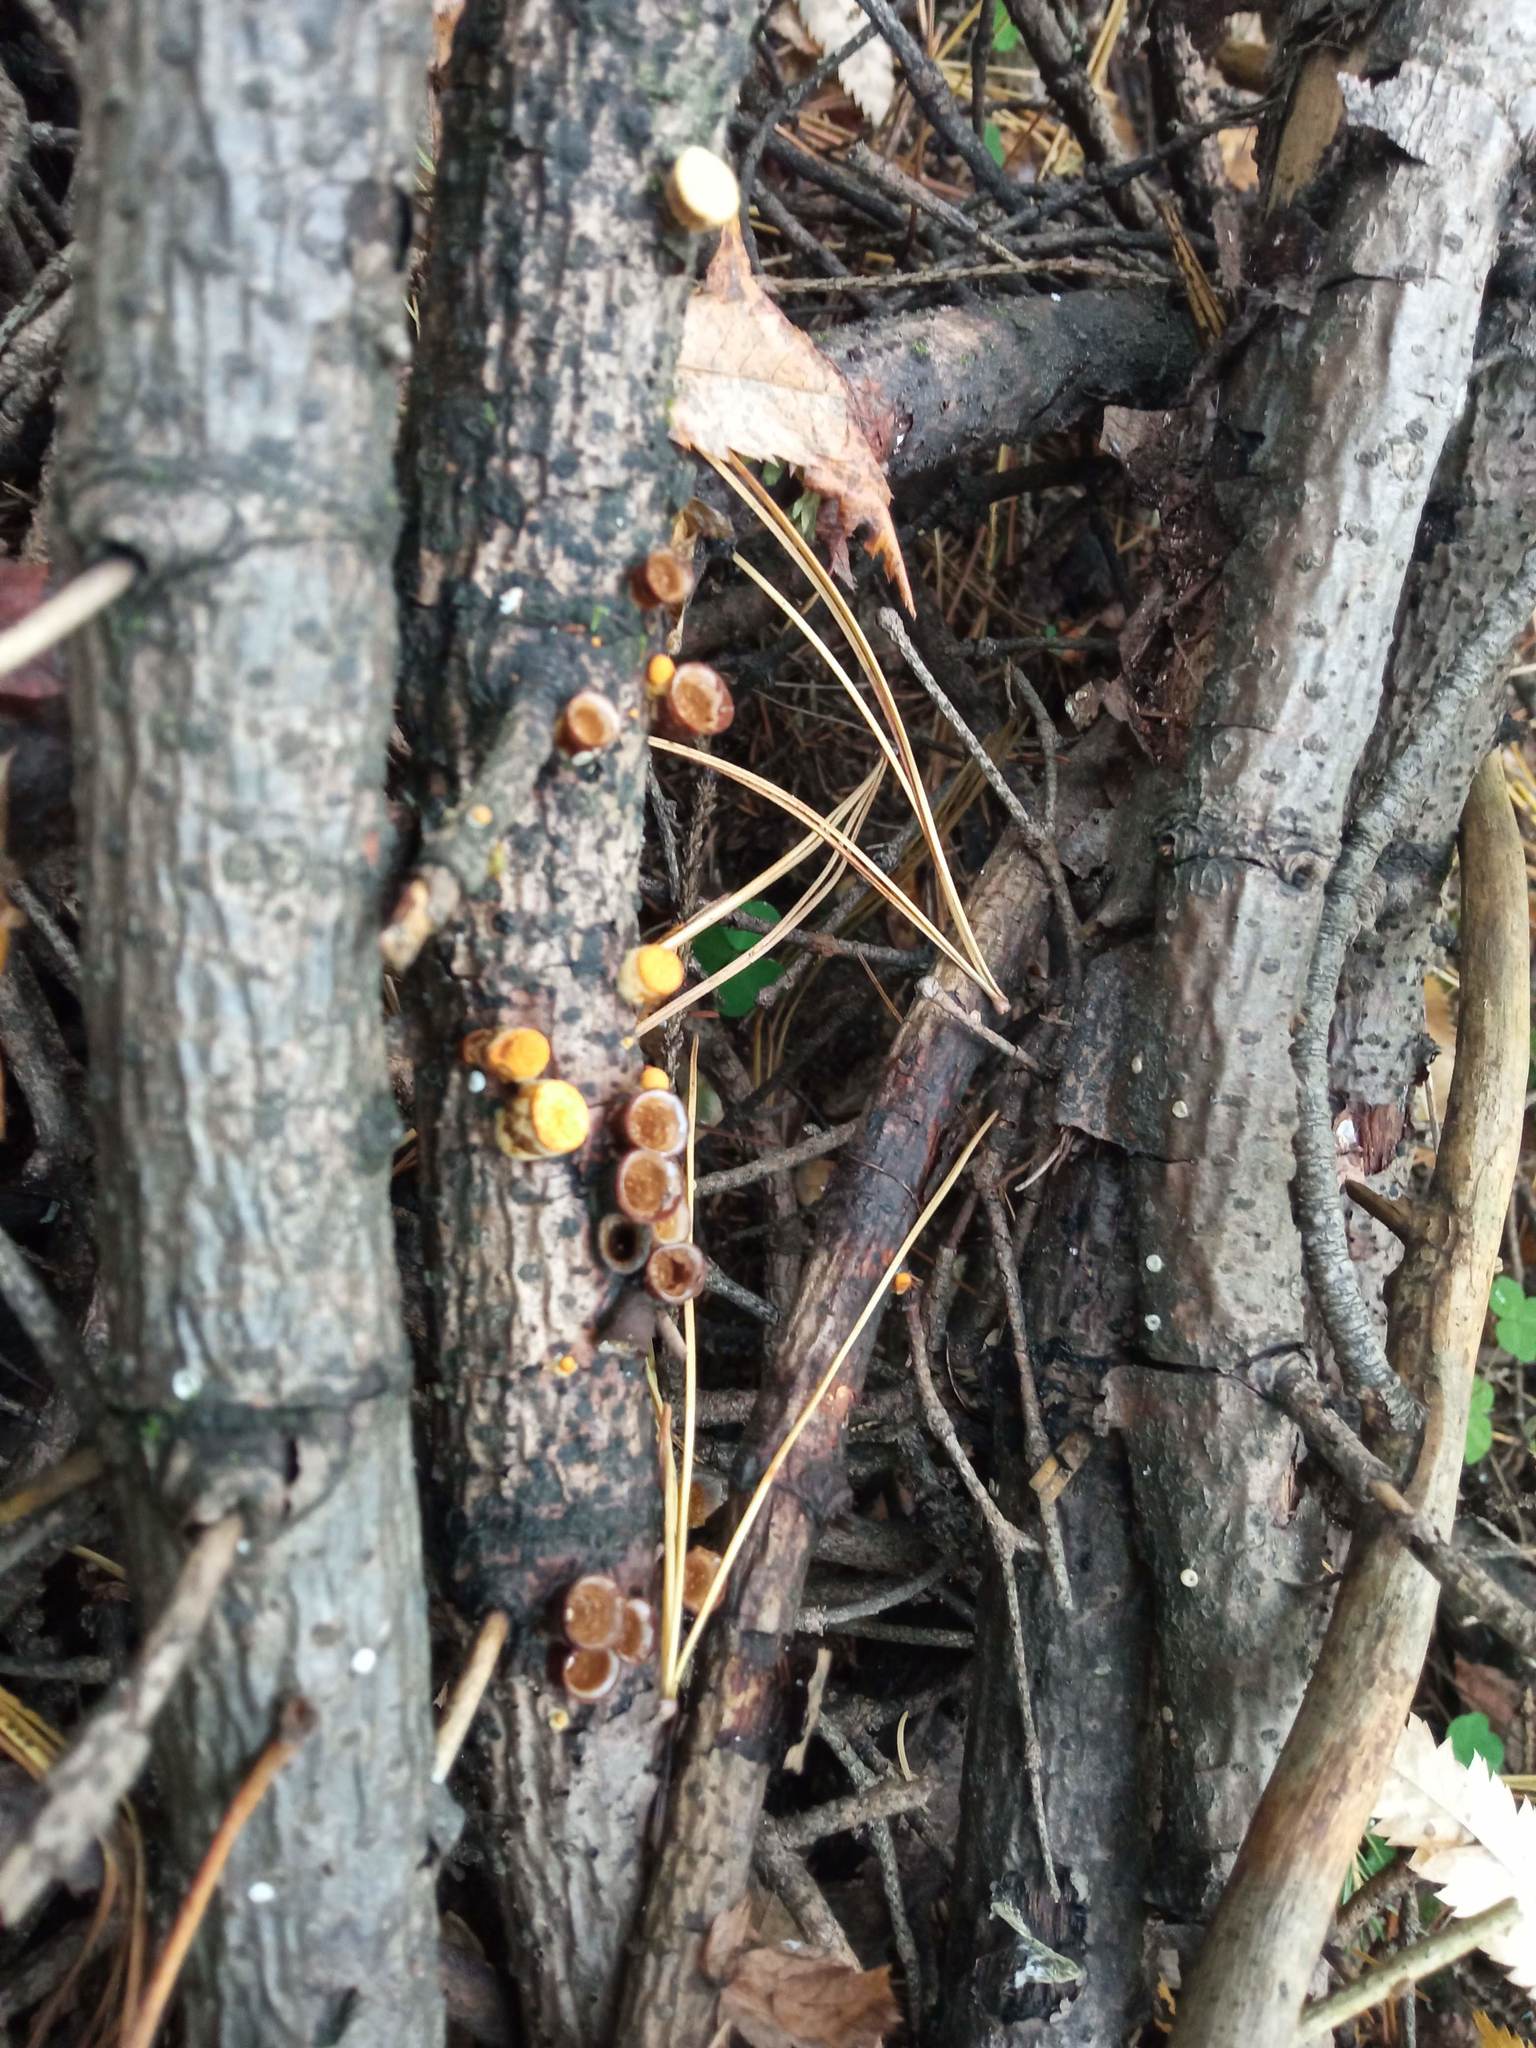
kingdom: Fungi
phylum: Basidiomycota
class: Agaricomycetes
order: Agaricales
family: Nidulariaceae
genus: Crucibulum
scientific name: Crucibulum laeve
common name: Common bird's nest
